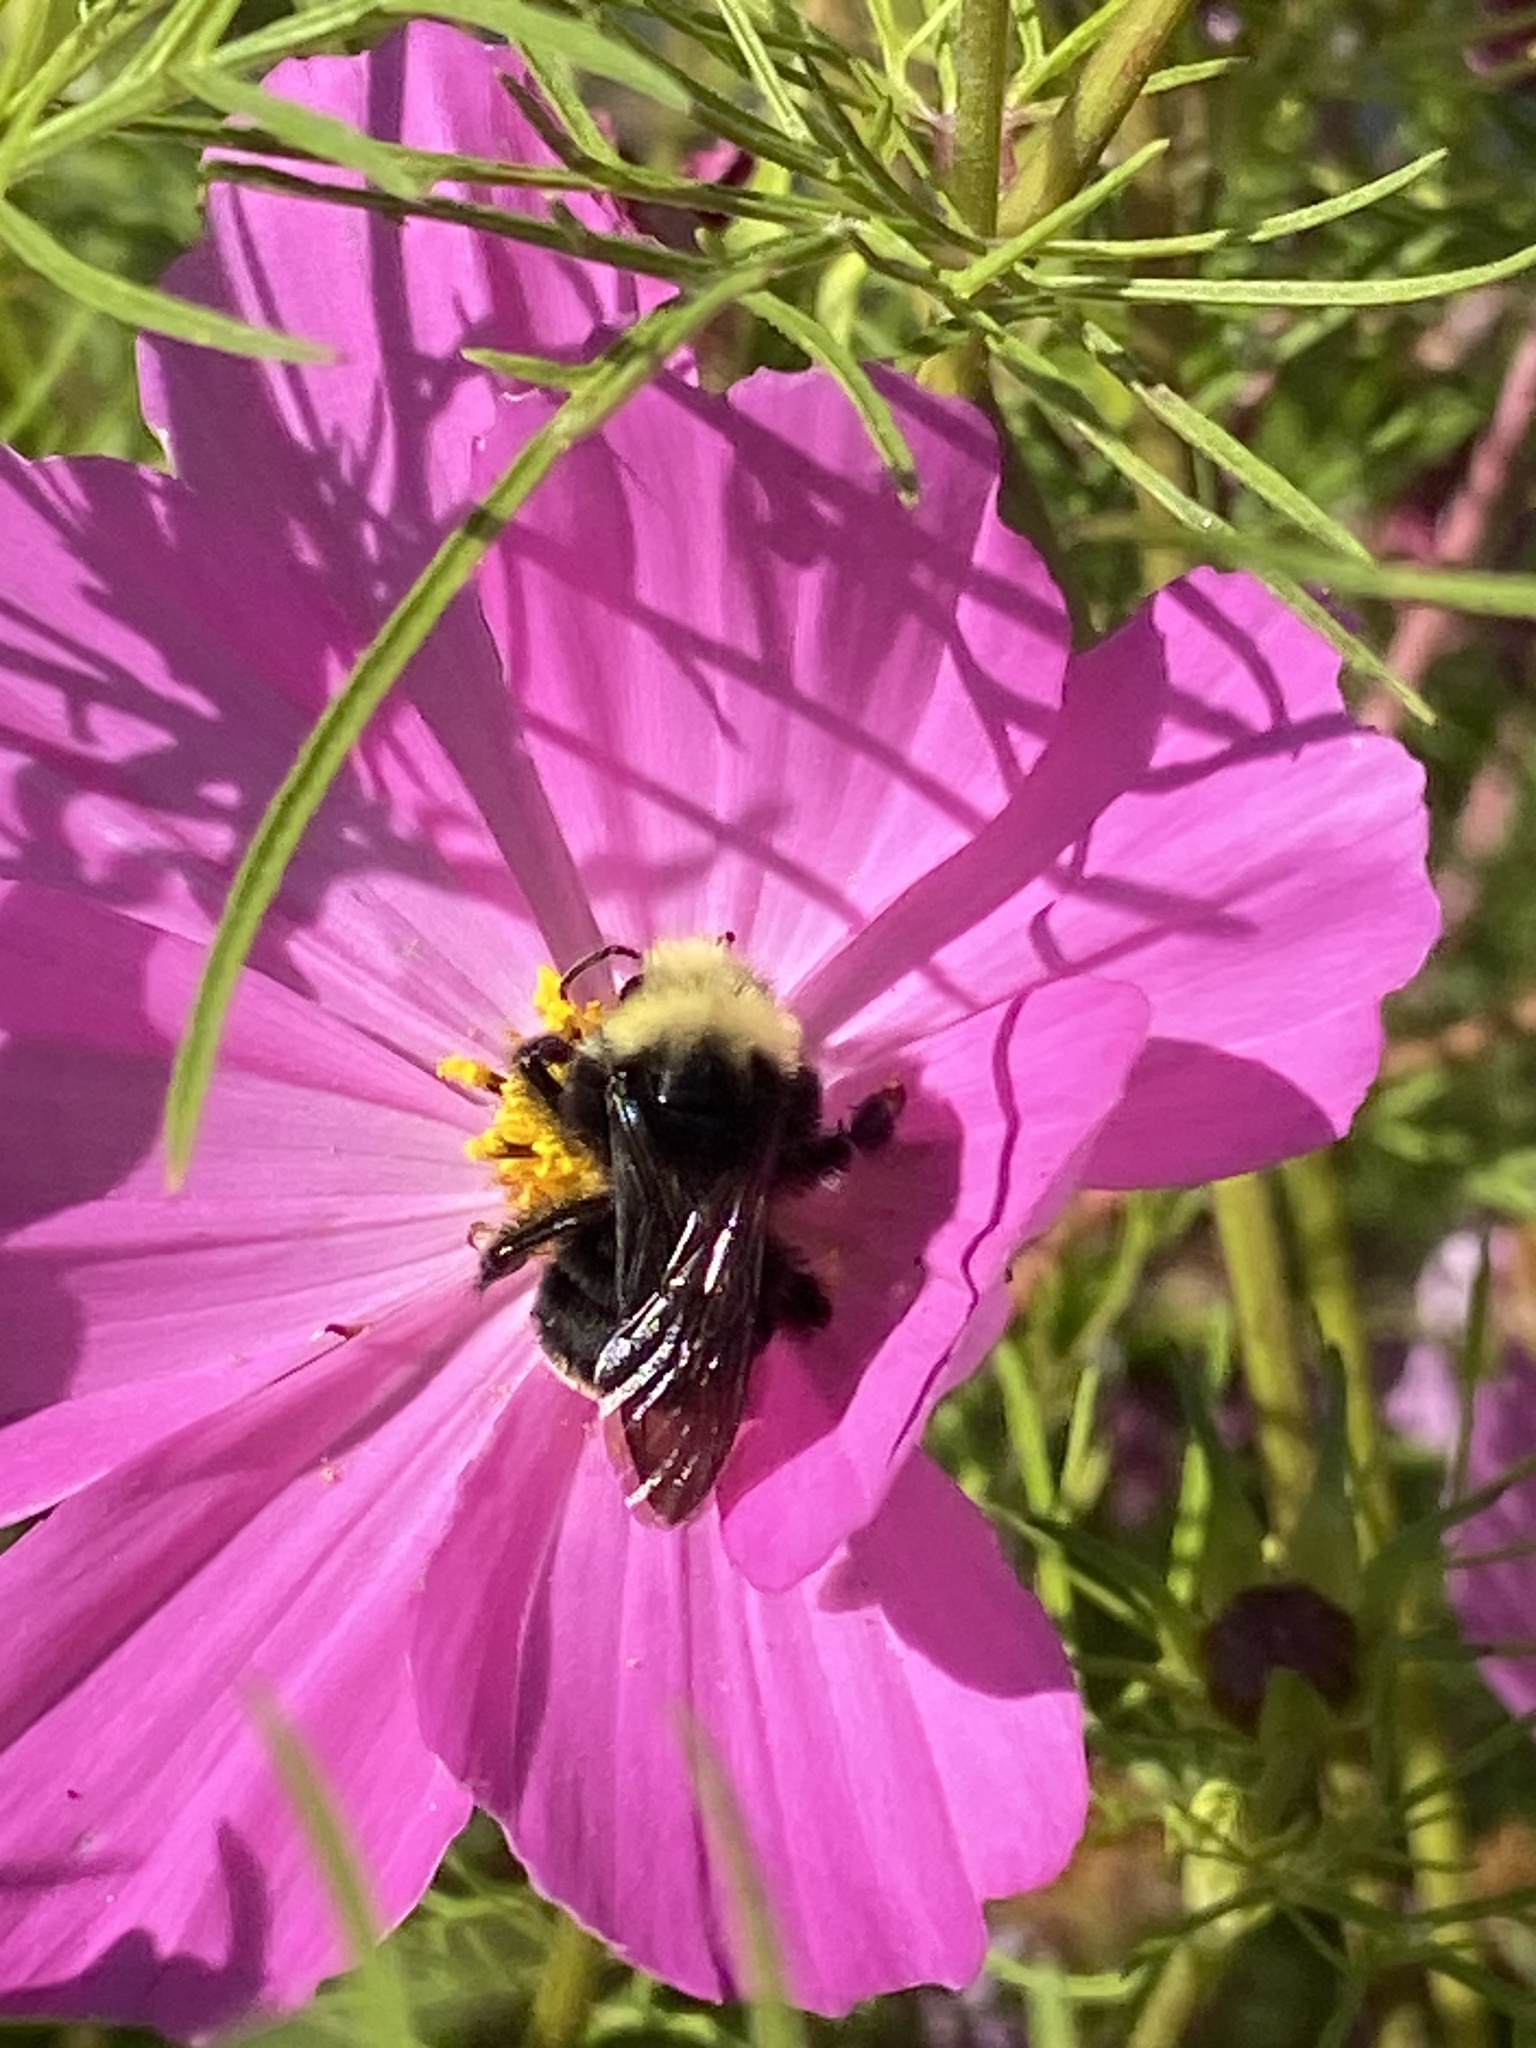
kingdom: Animalia
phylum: Arthropoda
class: Insecta
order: Hymenoptera
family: Apidae
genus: Bombus
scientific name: Bombus vosnesenskii
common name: Vosnesensky bumble bee
